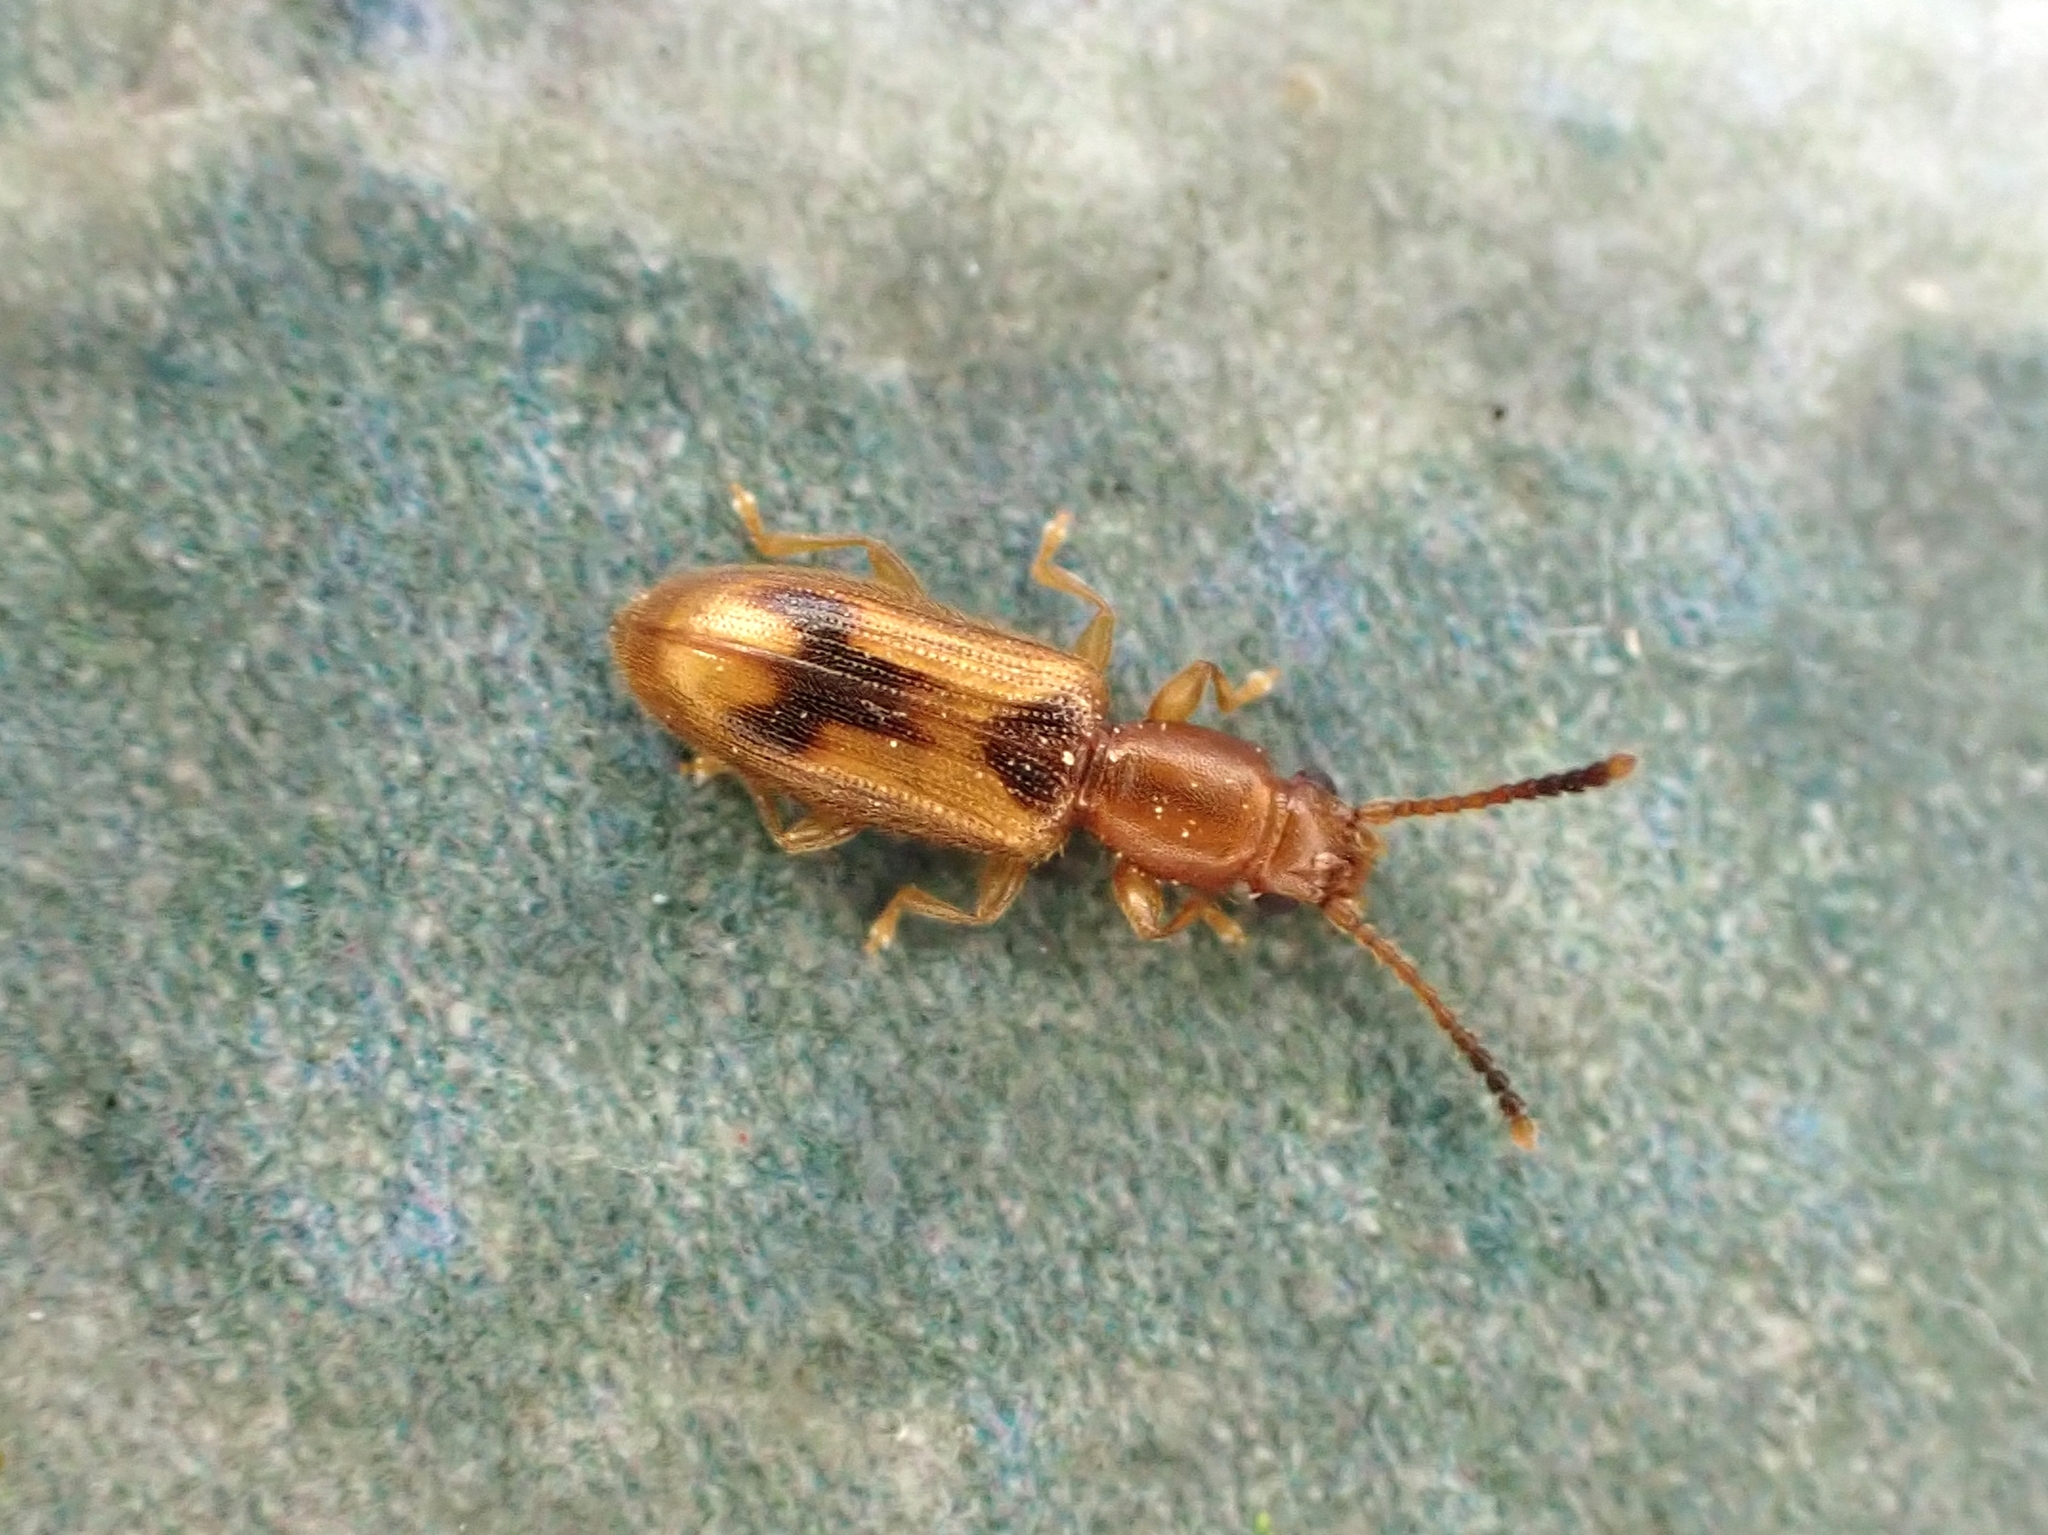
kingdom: Animalia
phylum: Arthropoda
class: Insecta
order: Coleoptera
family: Silvanidae
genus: Cryptamorpha
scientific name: Cryptamorpha desjardinsi
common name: Cryptamorpha
